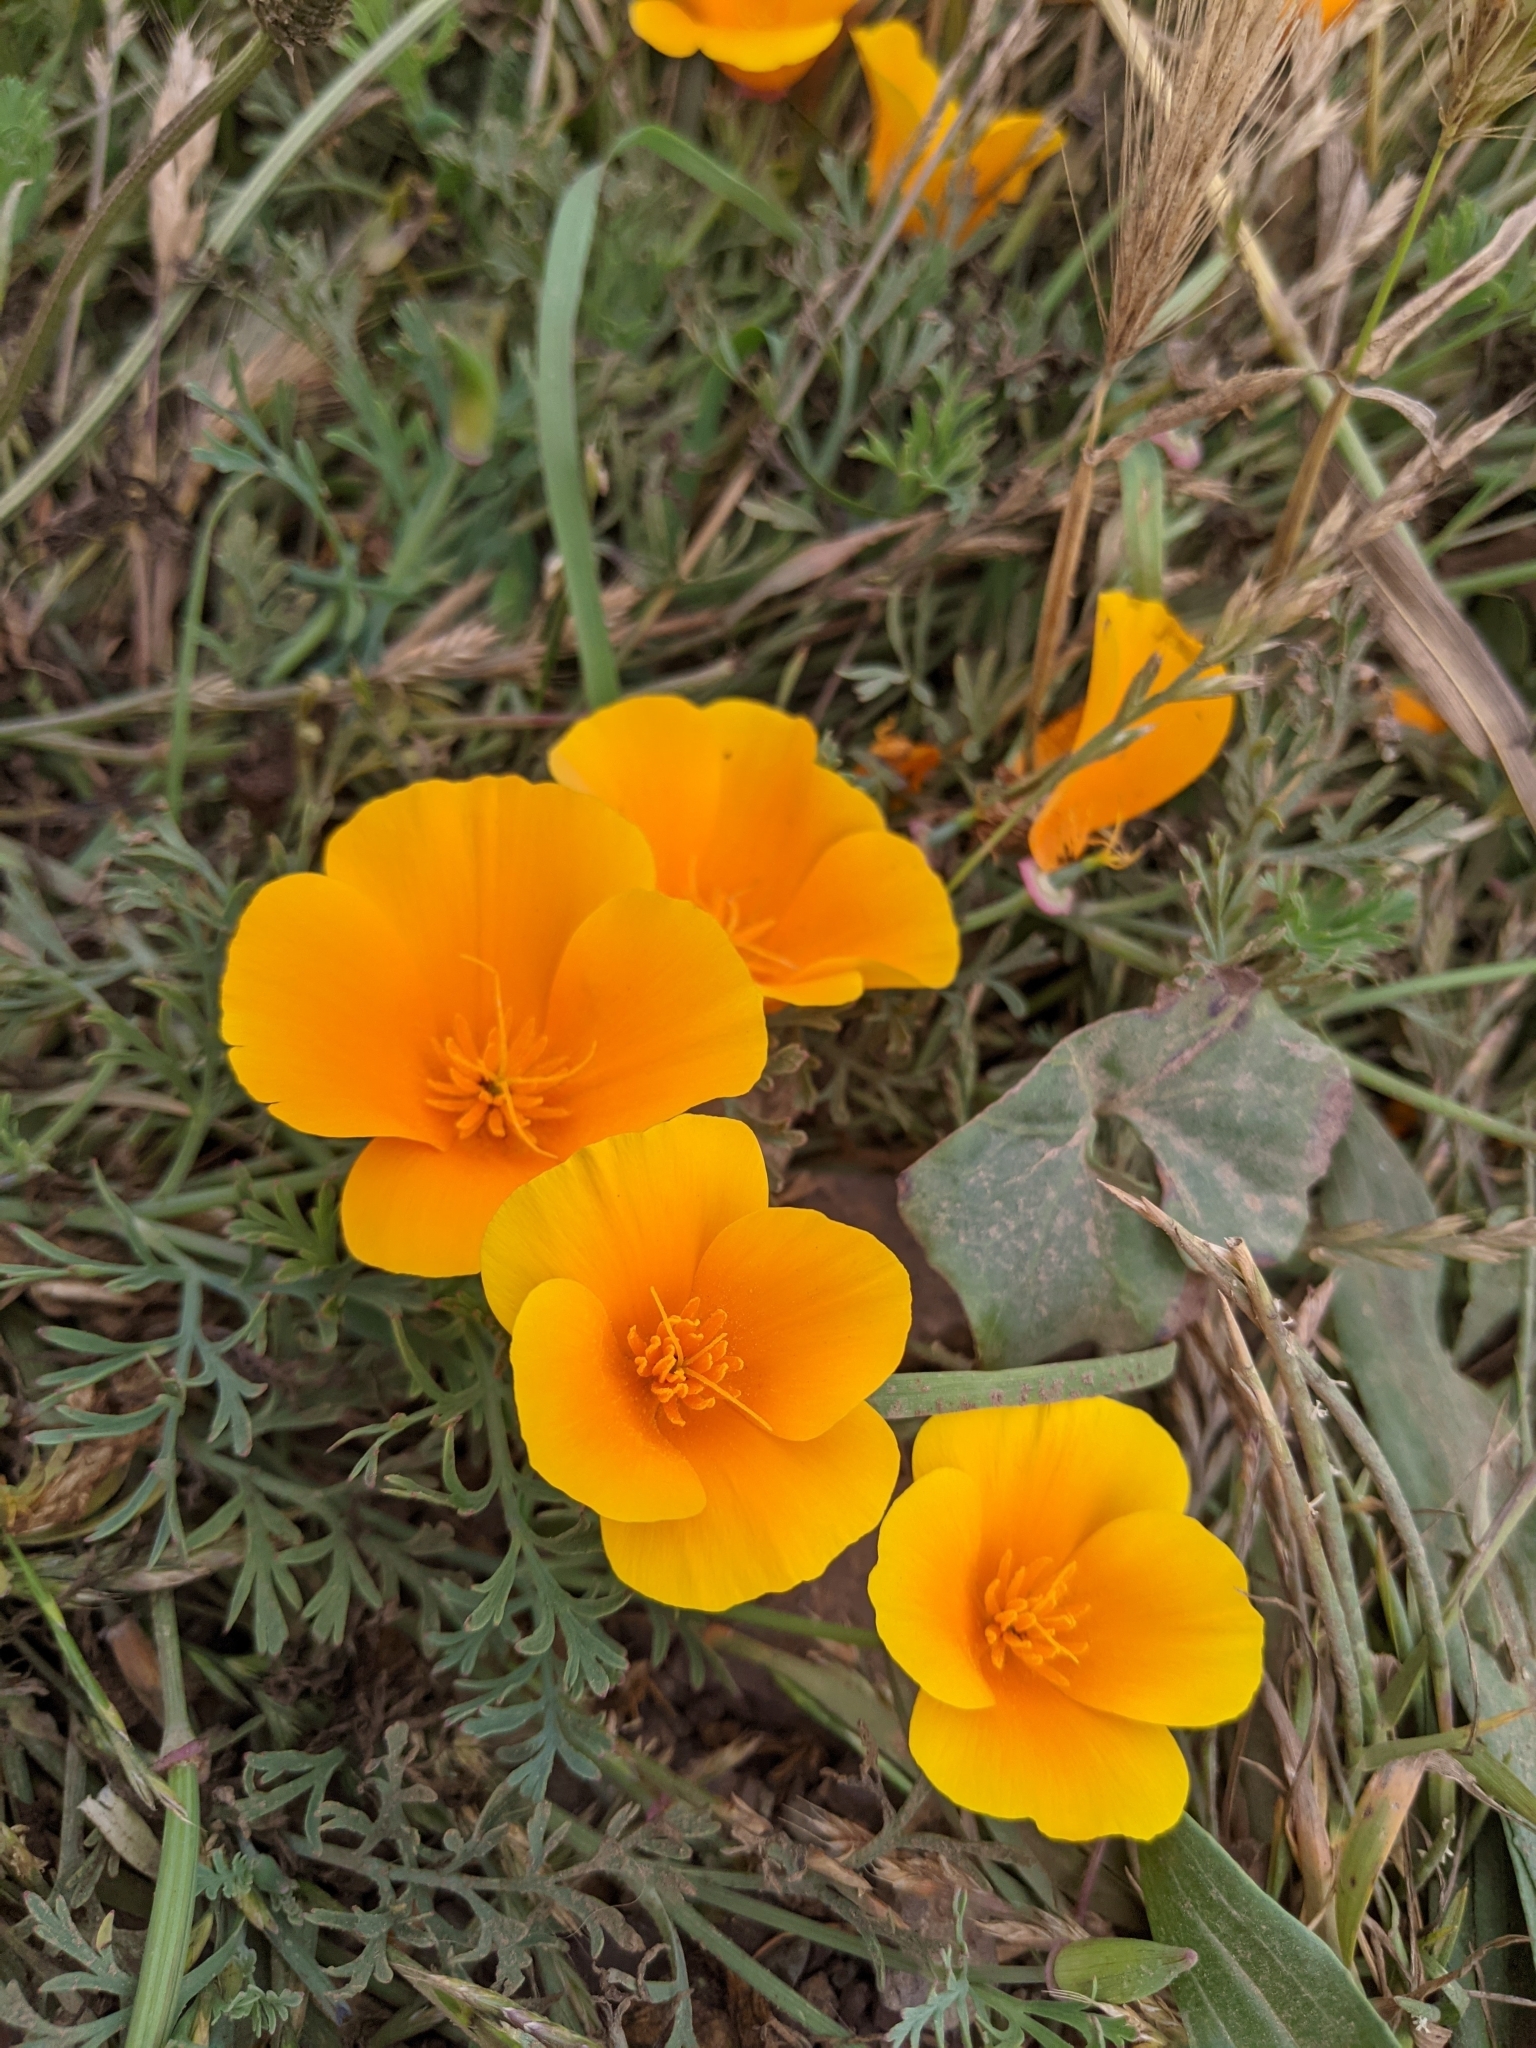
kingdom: Plantae
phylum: Tracheophyta
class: Magnoliopsida
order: Ranunculales
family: Papaveraceae
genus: Eschscholzia
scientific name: Eschscholzia californica
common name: California poppy
